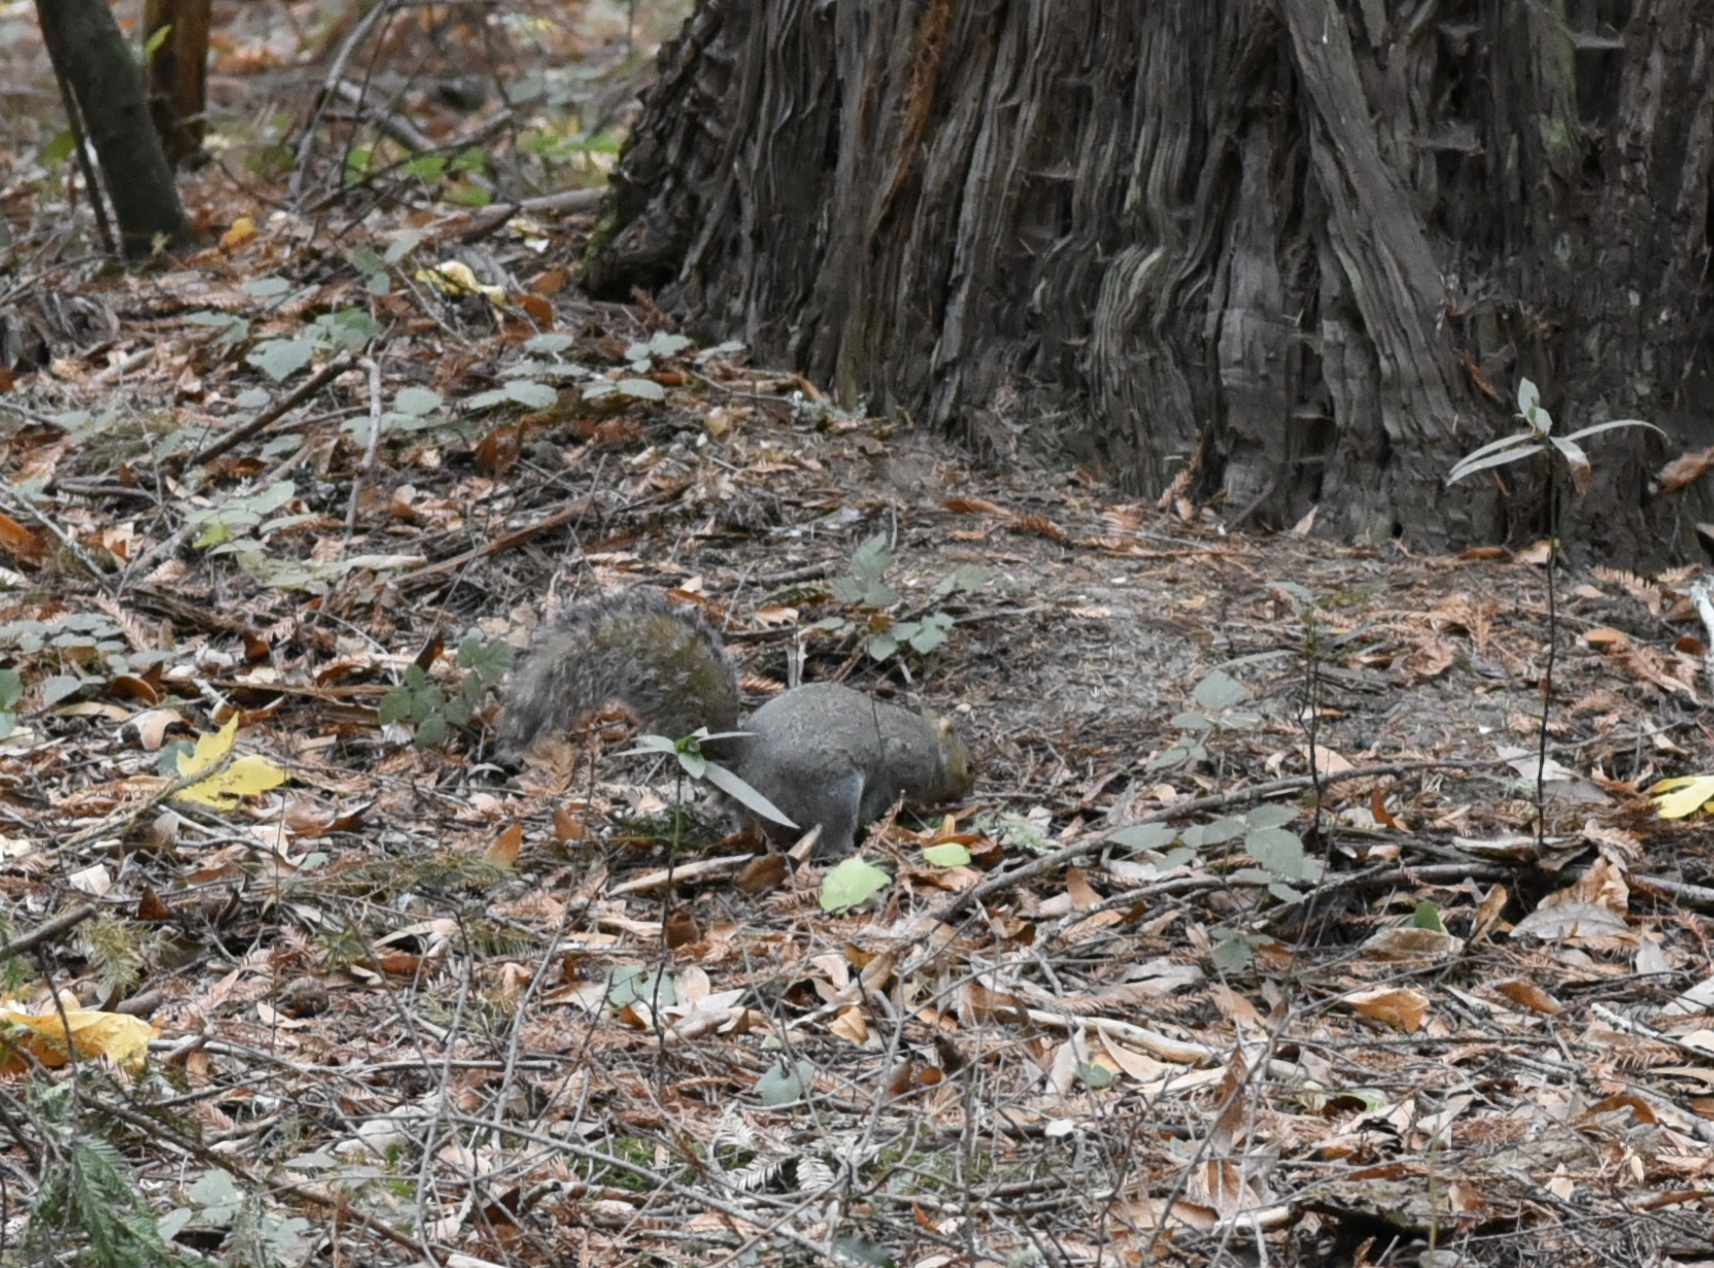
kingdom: Animalia
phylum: Chordata
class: Mammalia
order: Rodentia
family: Sciuridae
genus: Sciurus
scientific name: Sciurus carolinensis
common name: Eastern gray squirrel
